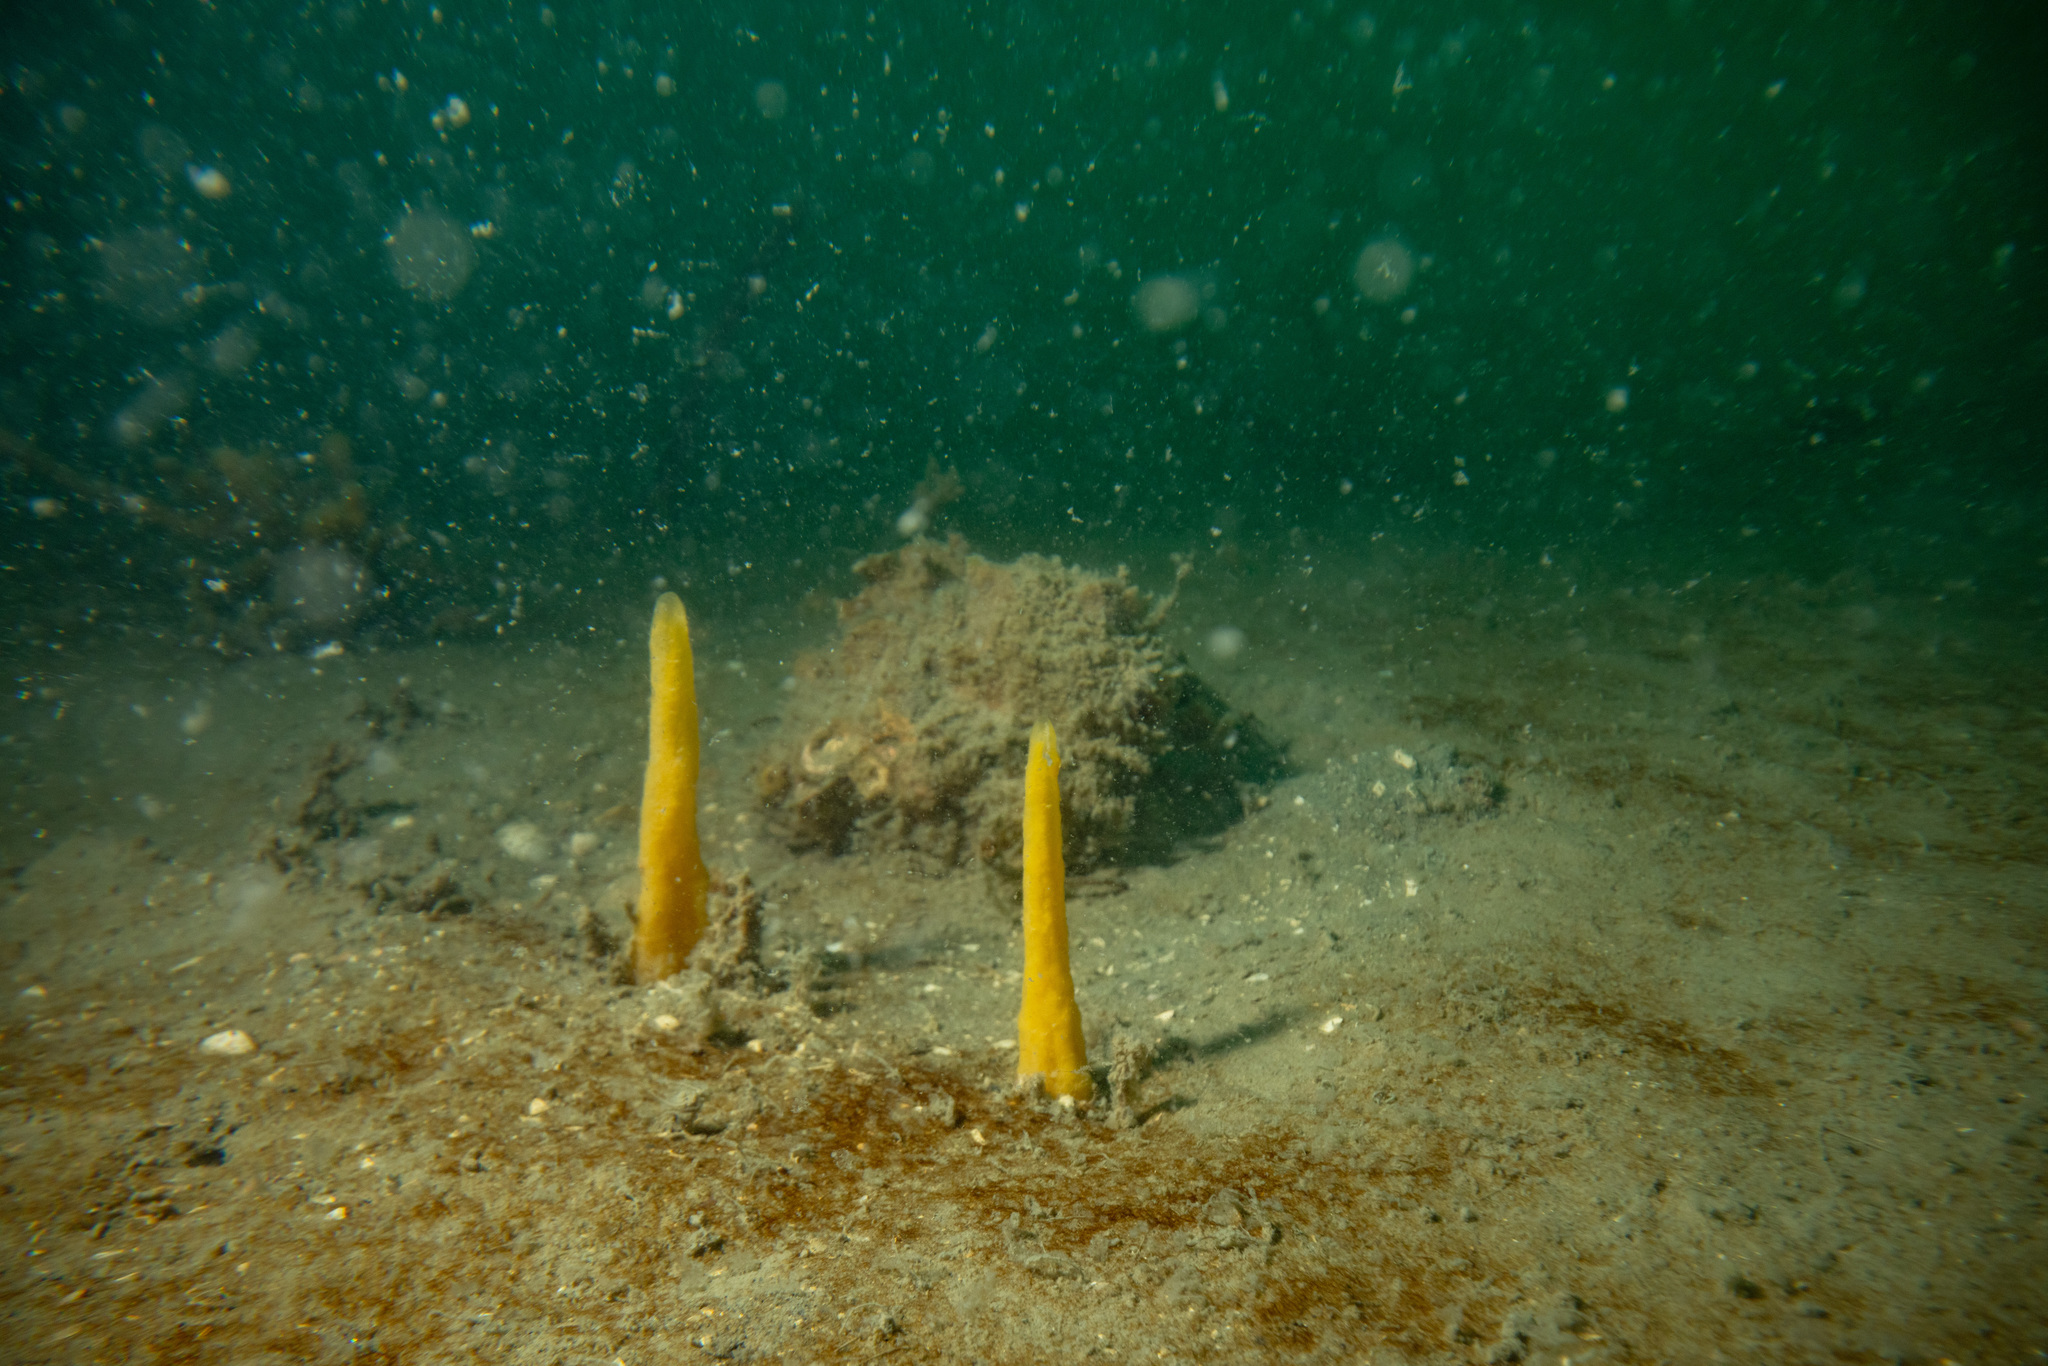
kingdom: Animalia
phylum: Porifera
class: Demospongiae
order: Suberitida
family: Halichondriidae
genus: Ciocalypta
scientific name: Ciocalypta polymastia
